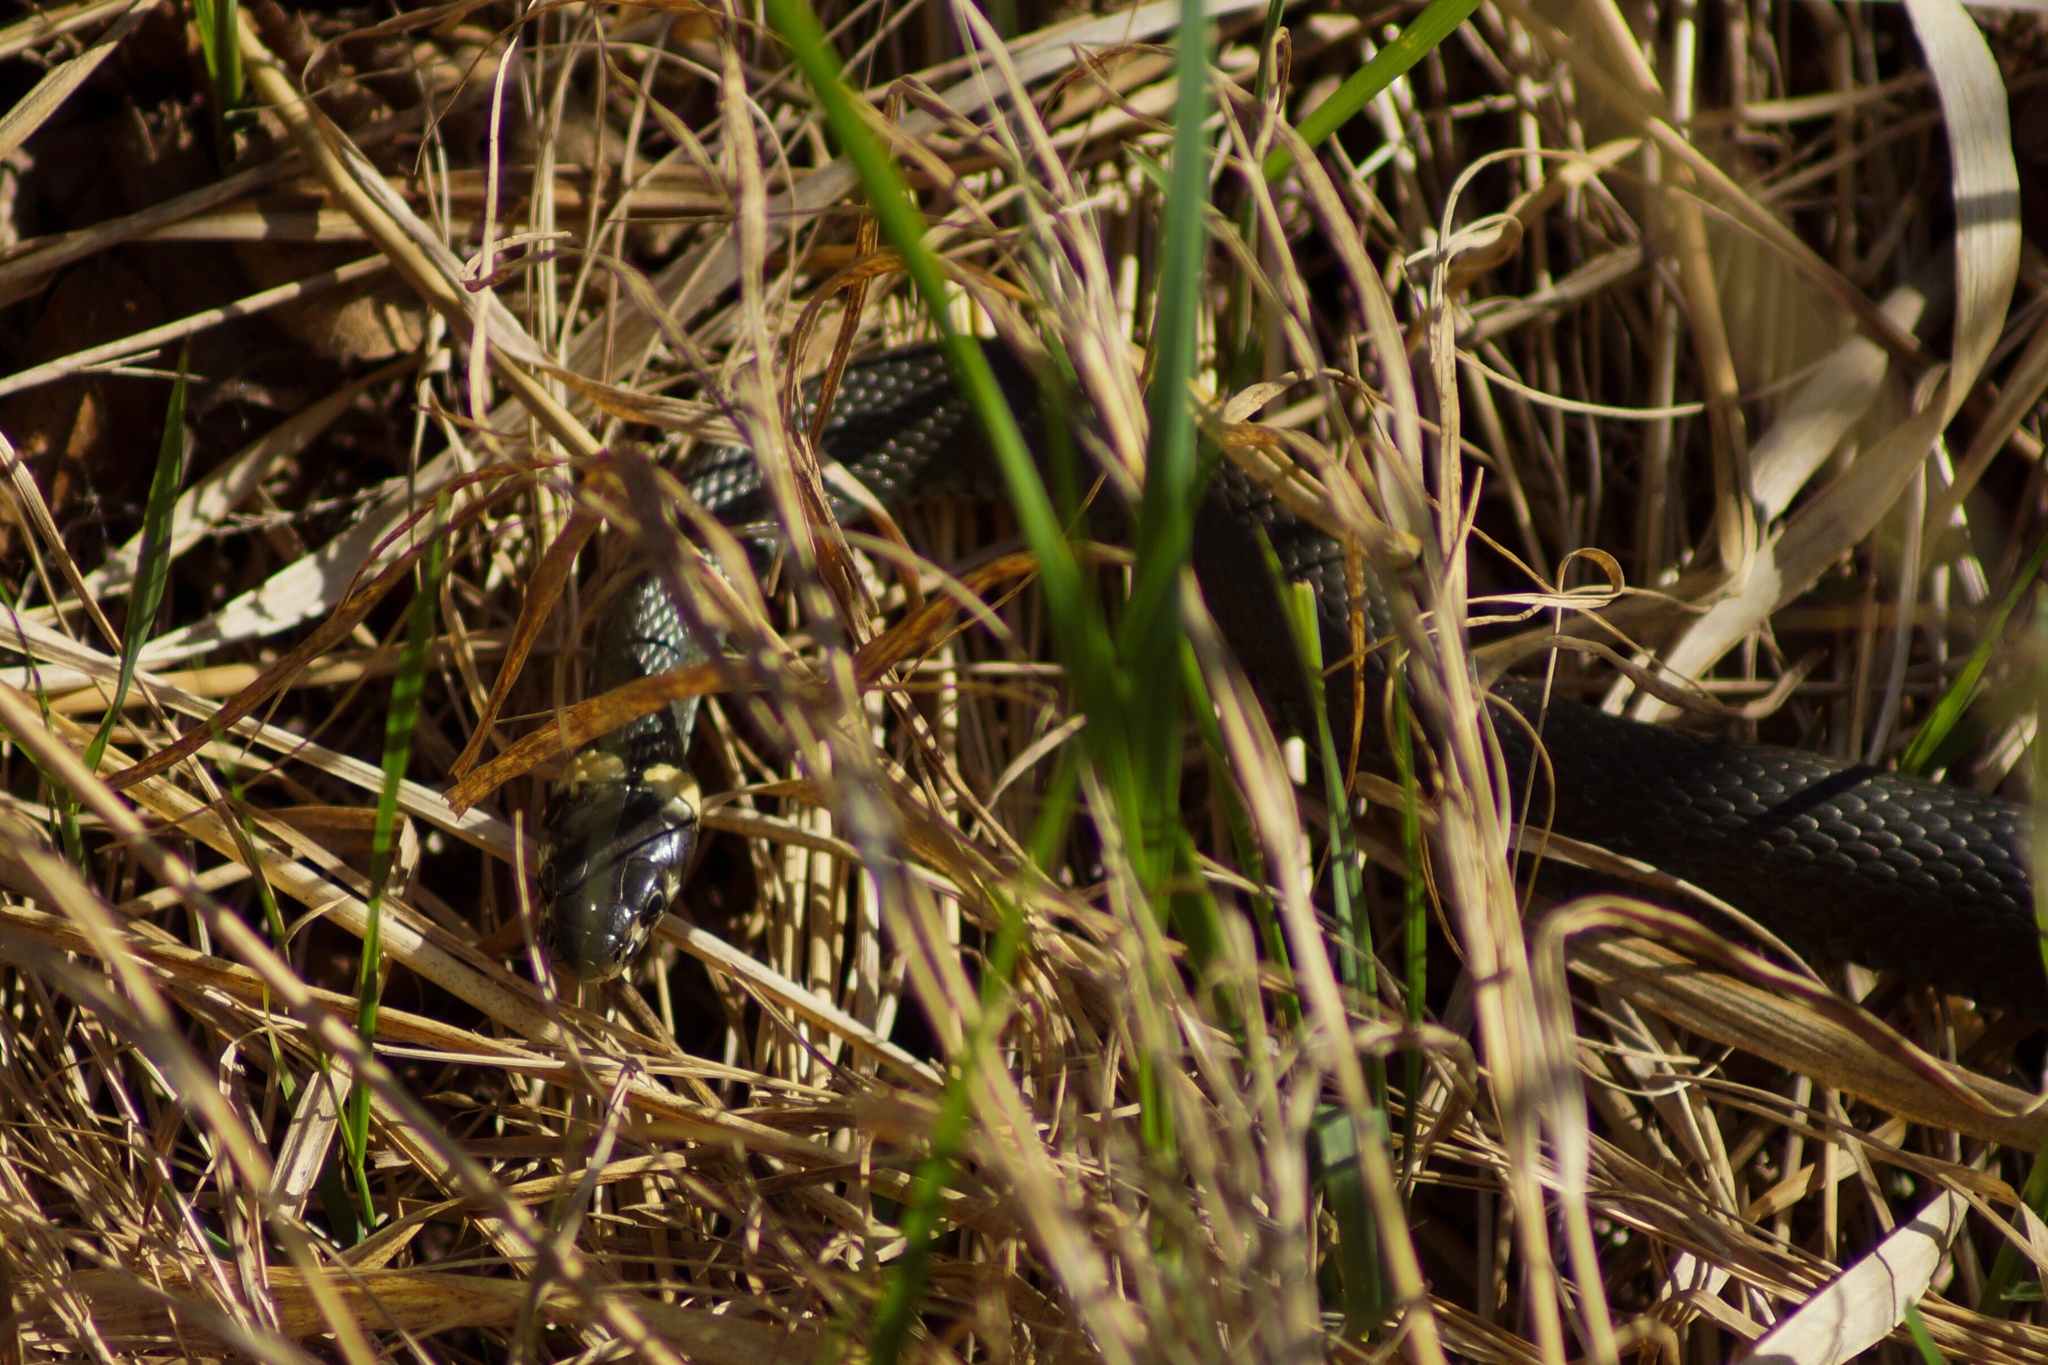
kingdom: Animalia
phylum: Chordata
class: Squamata
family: Colubridae
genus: Natrix
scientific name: Natrix natrix
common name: Grass snake
